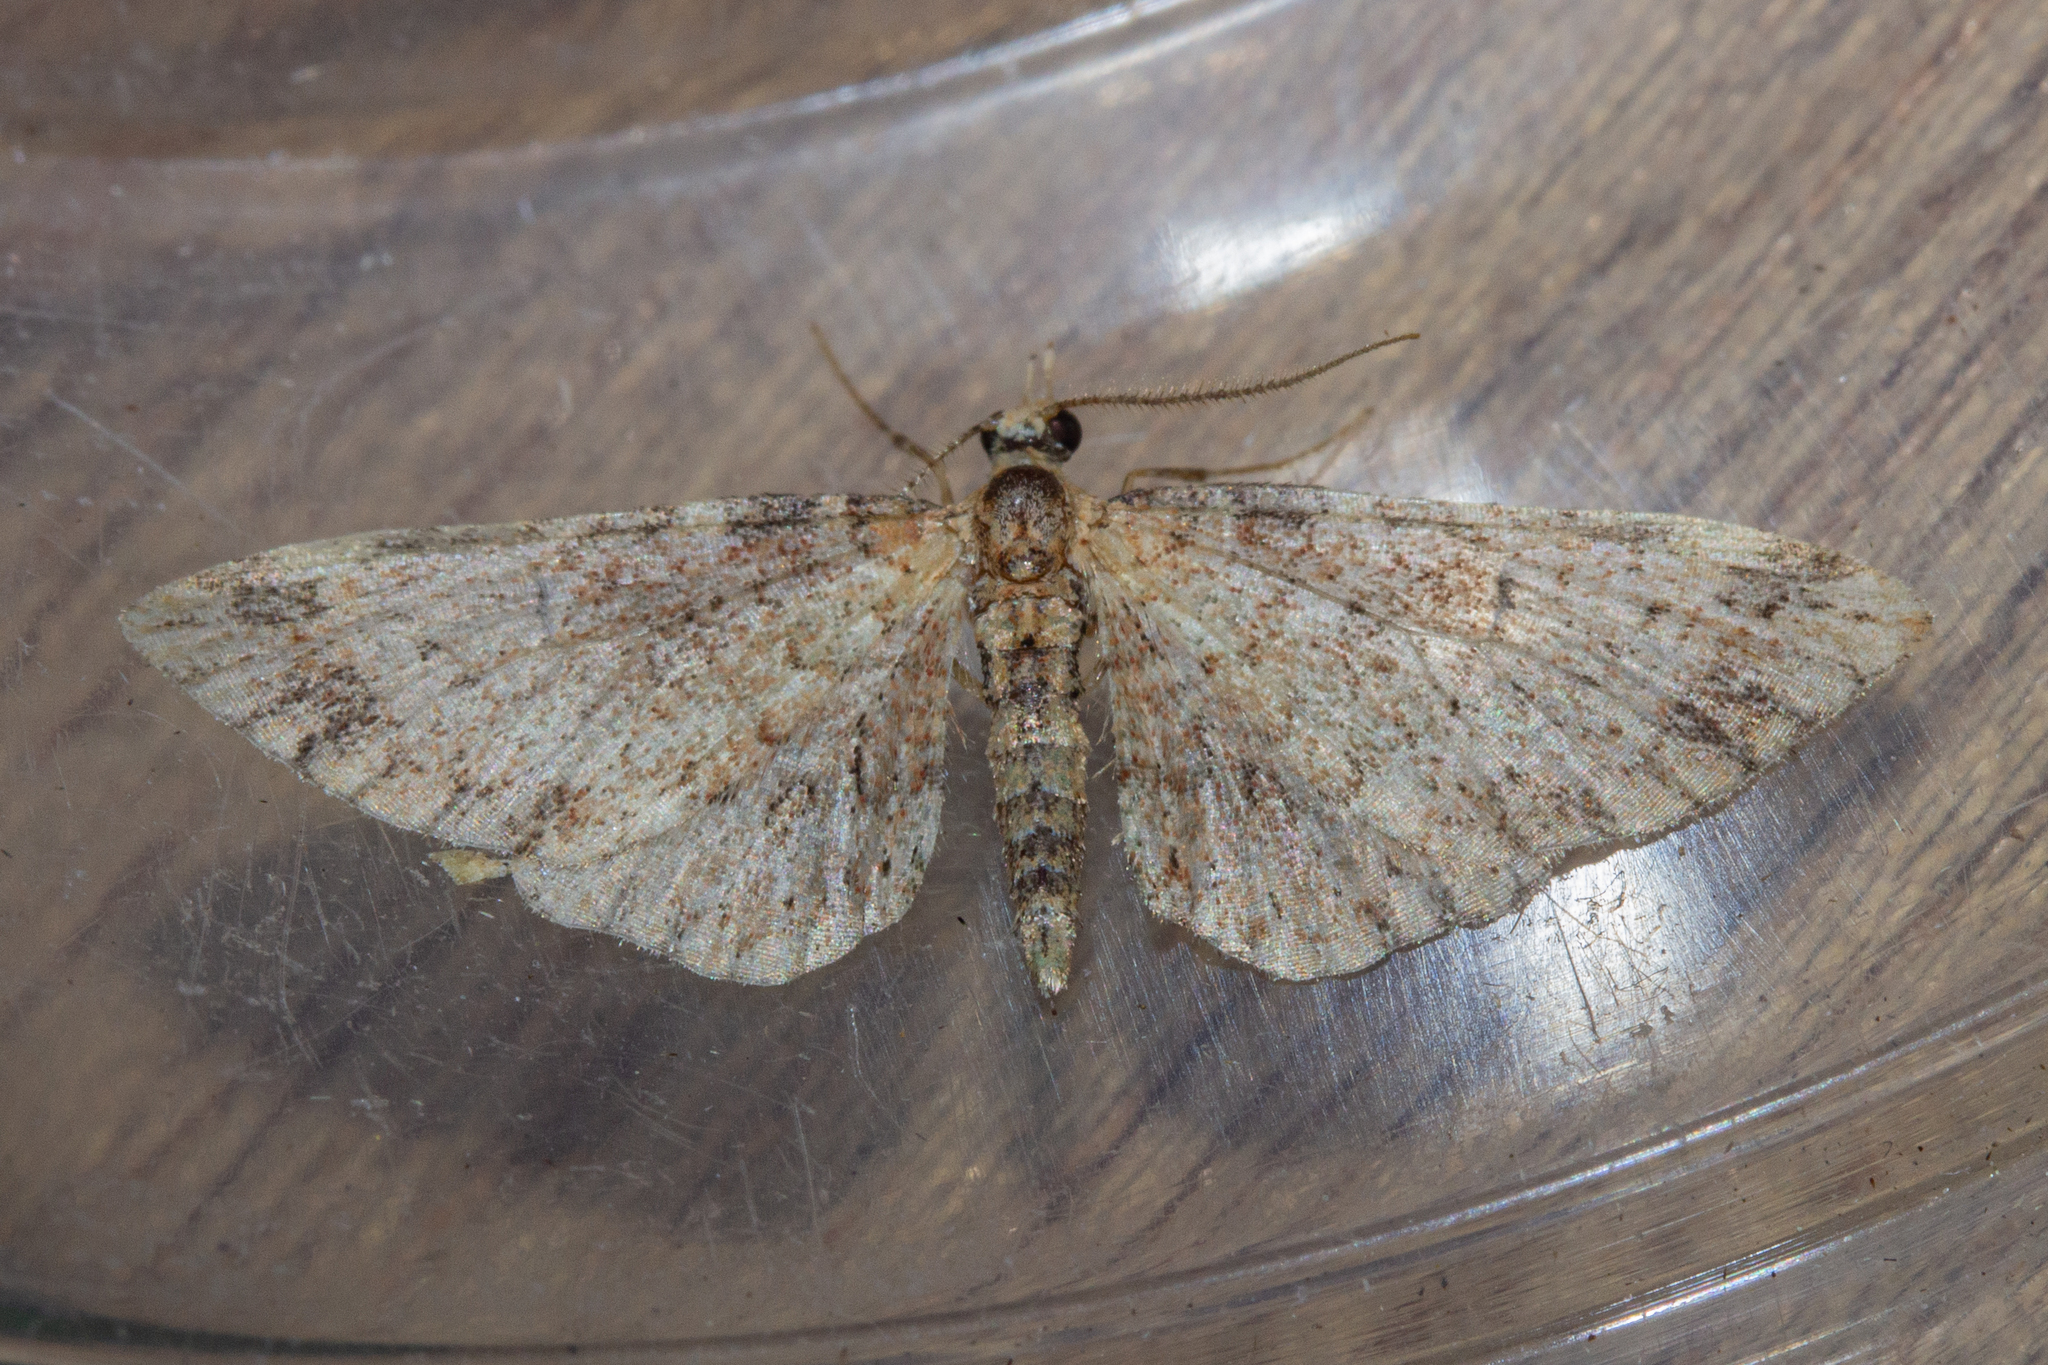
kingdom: Animalia
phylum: Arthropoda
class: Insecta
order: Lepidoptera
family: Geometridae
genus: Pasiphila
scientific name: Pasiphila plinthina
